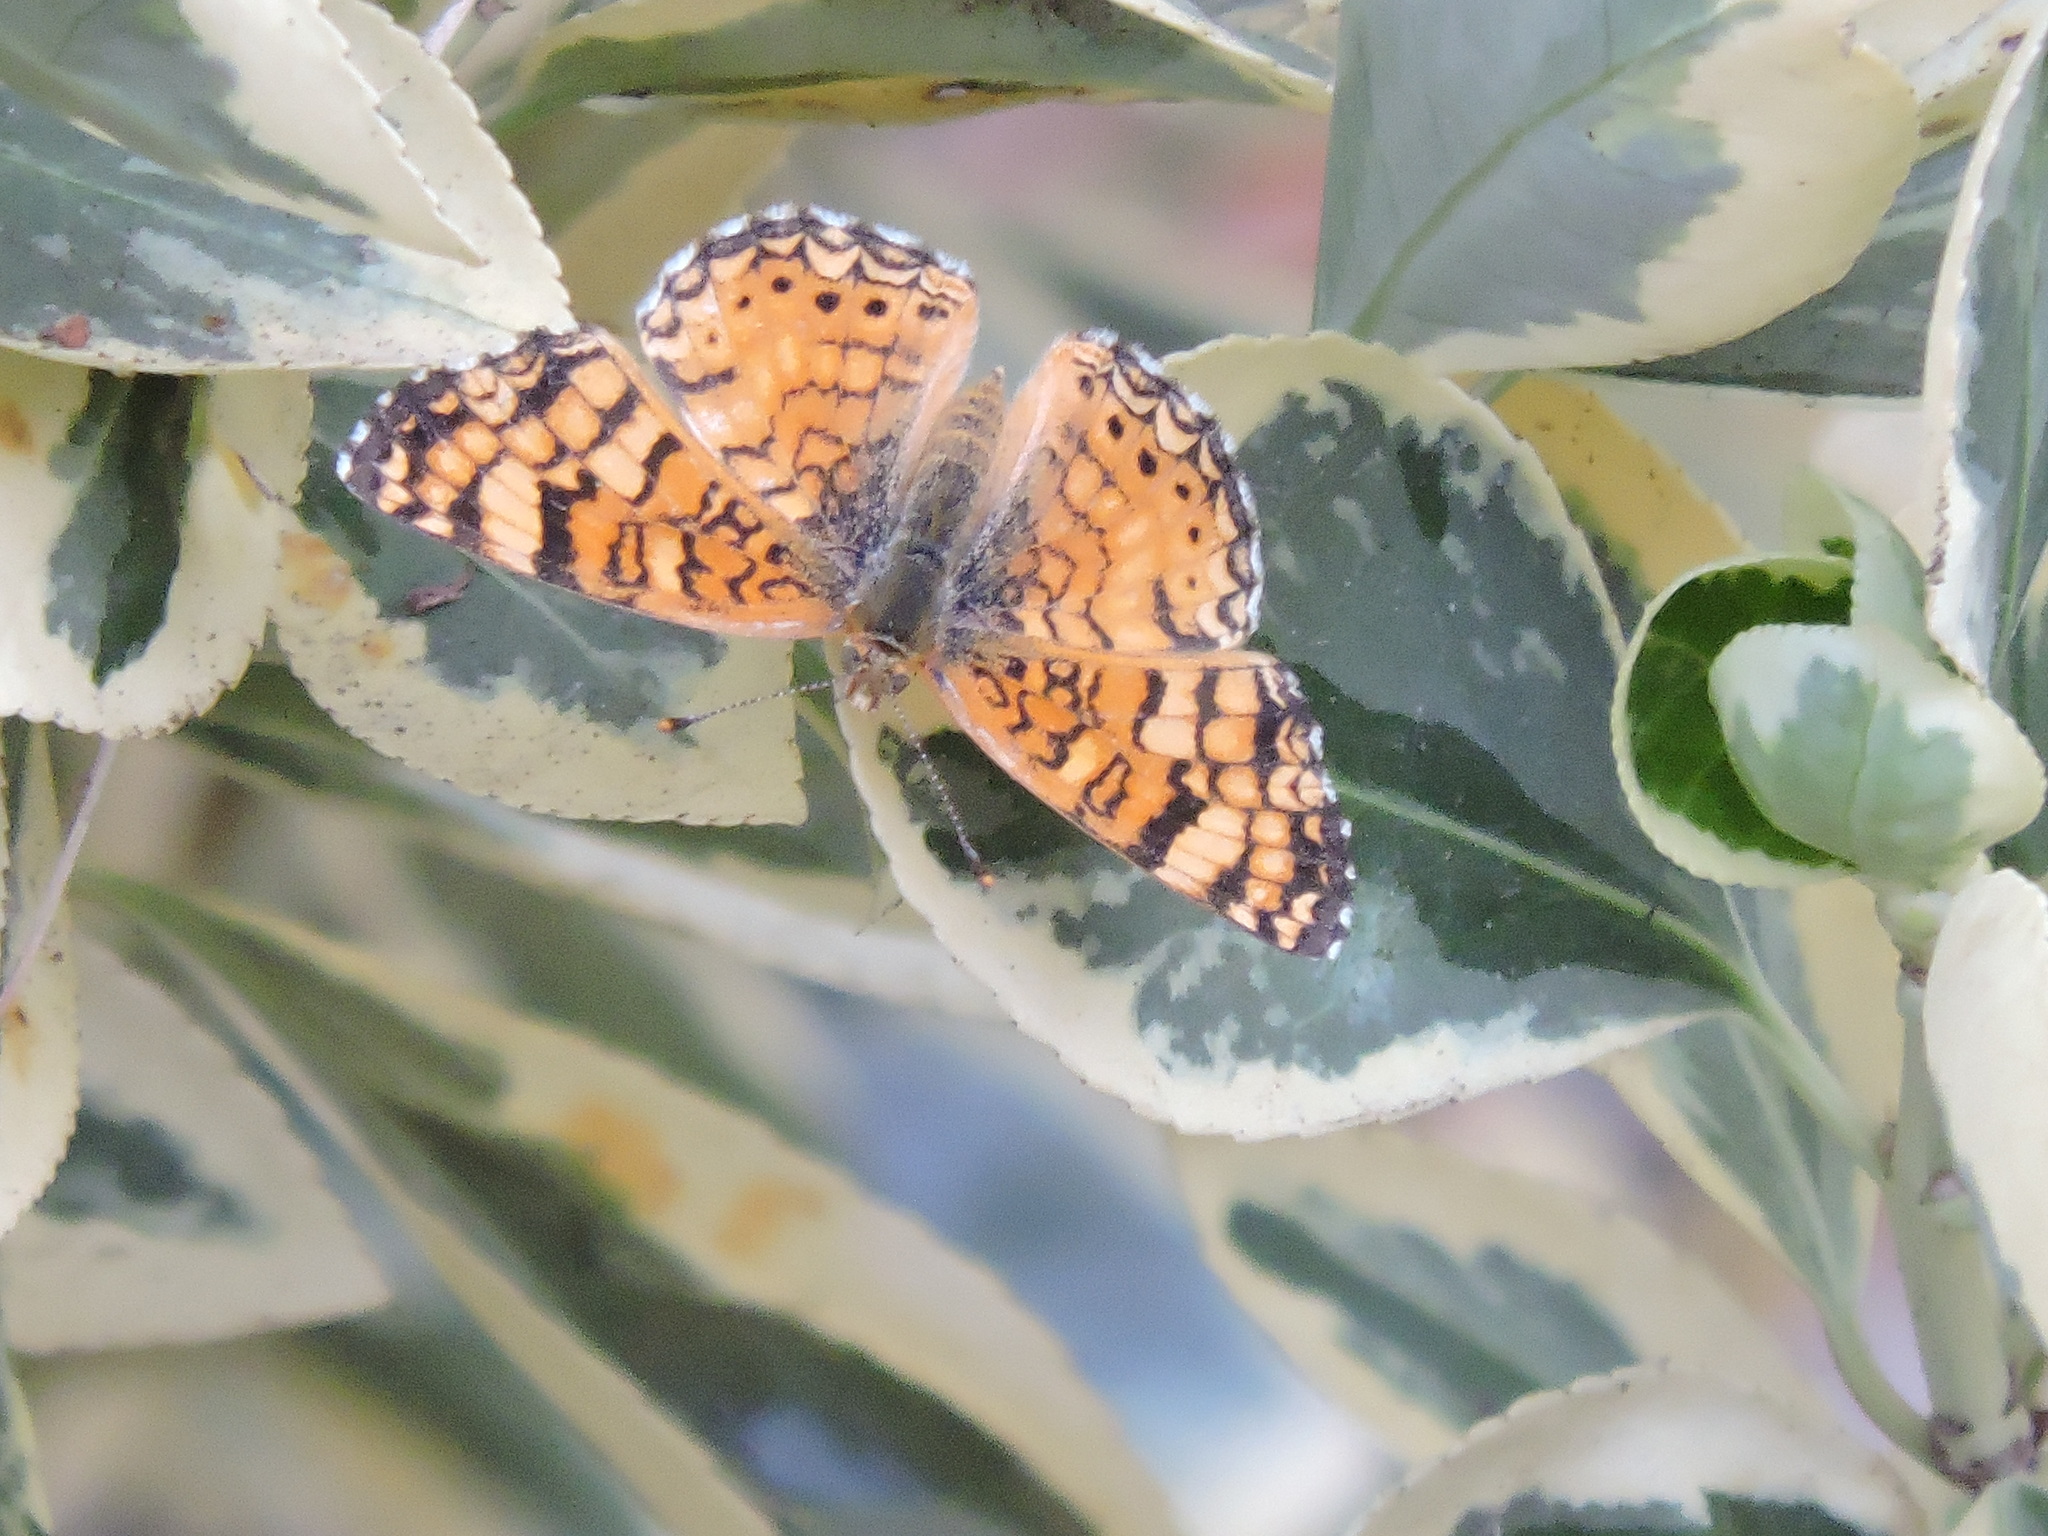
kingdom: Animalia
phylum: Arthropoda
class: Insecta
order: Lepidoptera
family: Nymphalidae
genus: Eresia
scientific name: Eresia aveyrona
